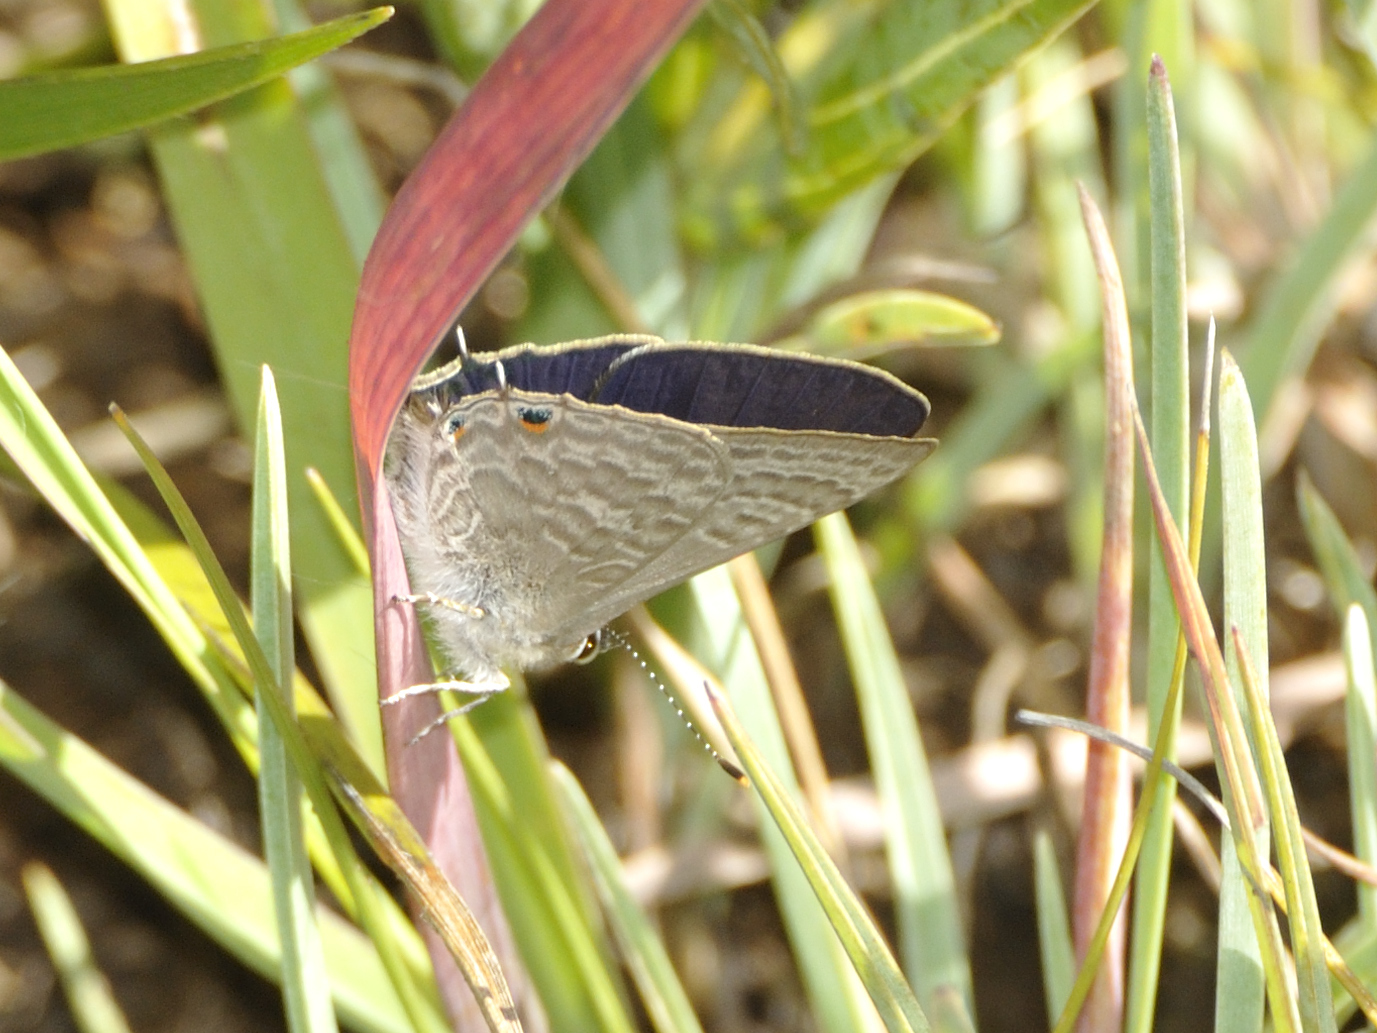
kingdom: Animalia
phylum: Arthropoda
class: Insecta
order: Lepidoptera
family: Lycaenidae
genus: Anthene
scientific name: Anthene definita
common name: Common ciliate blue
